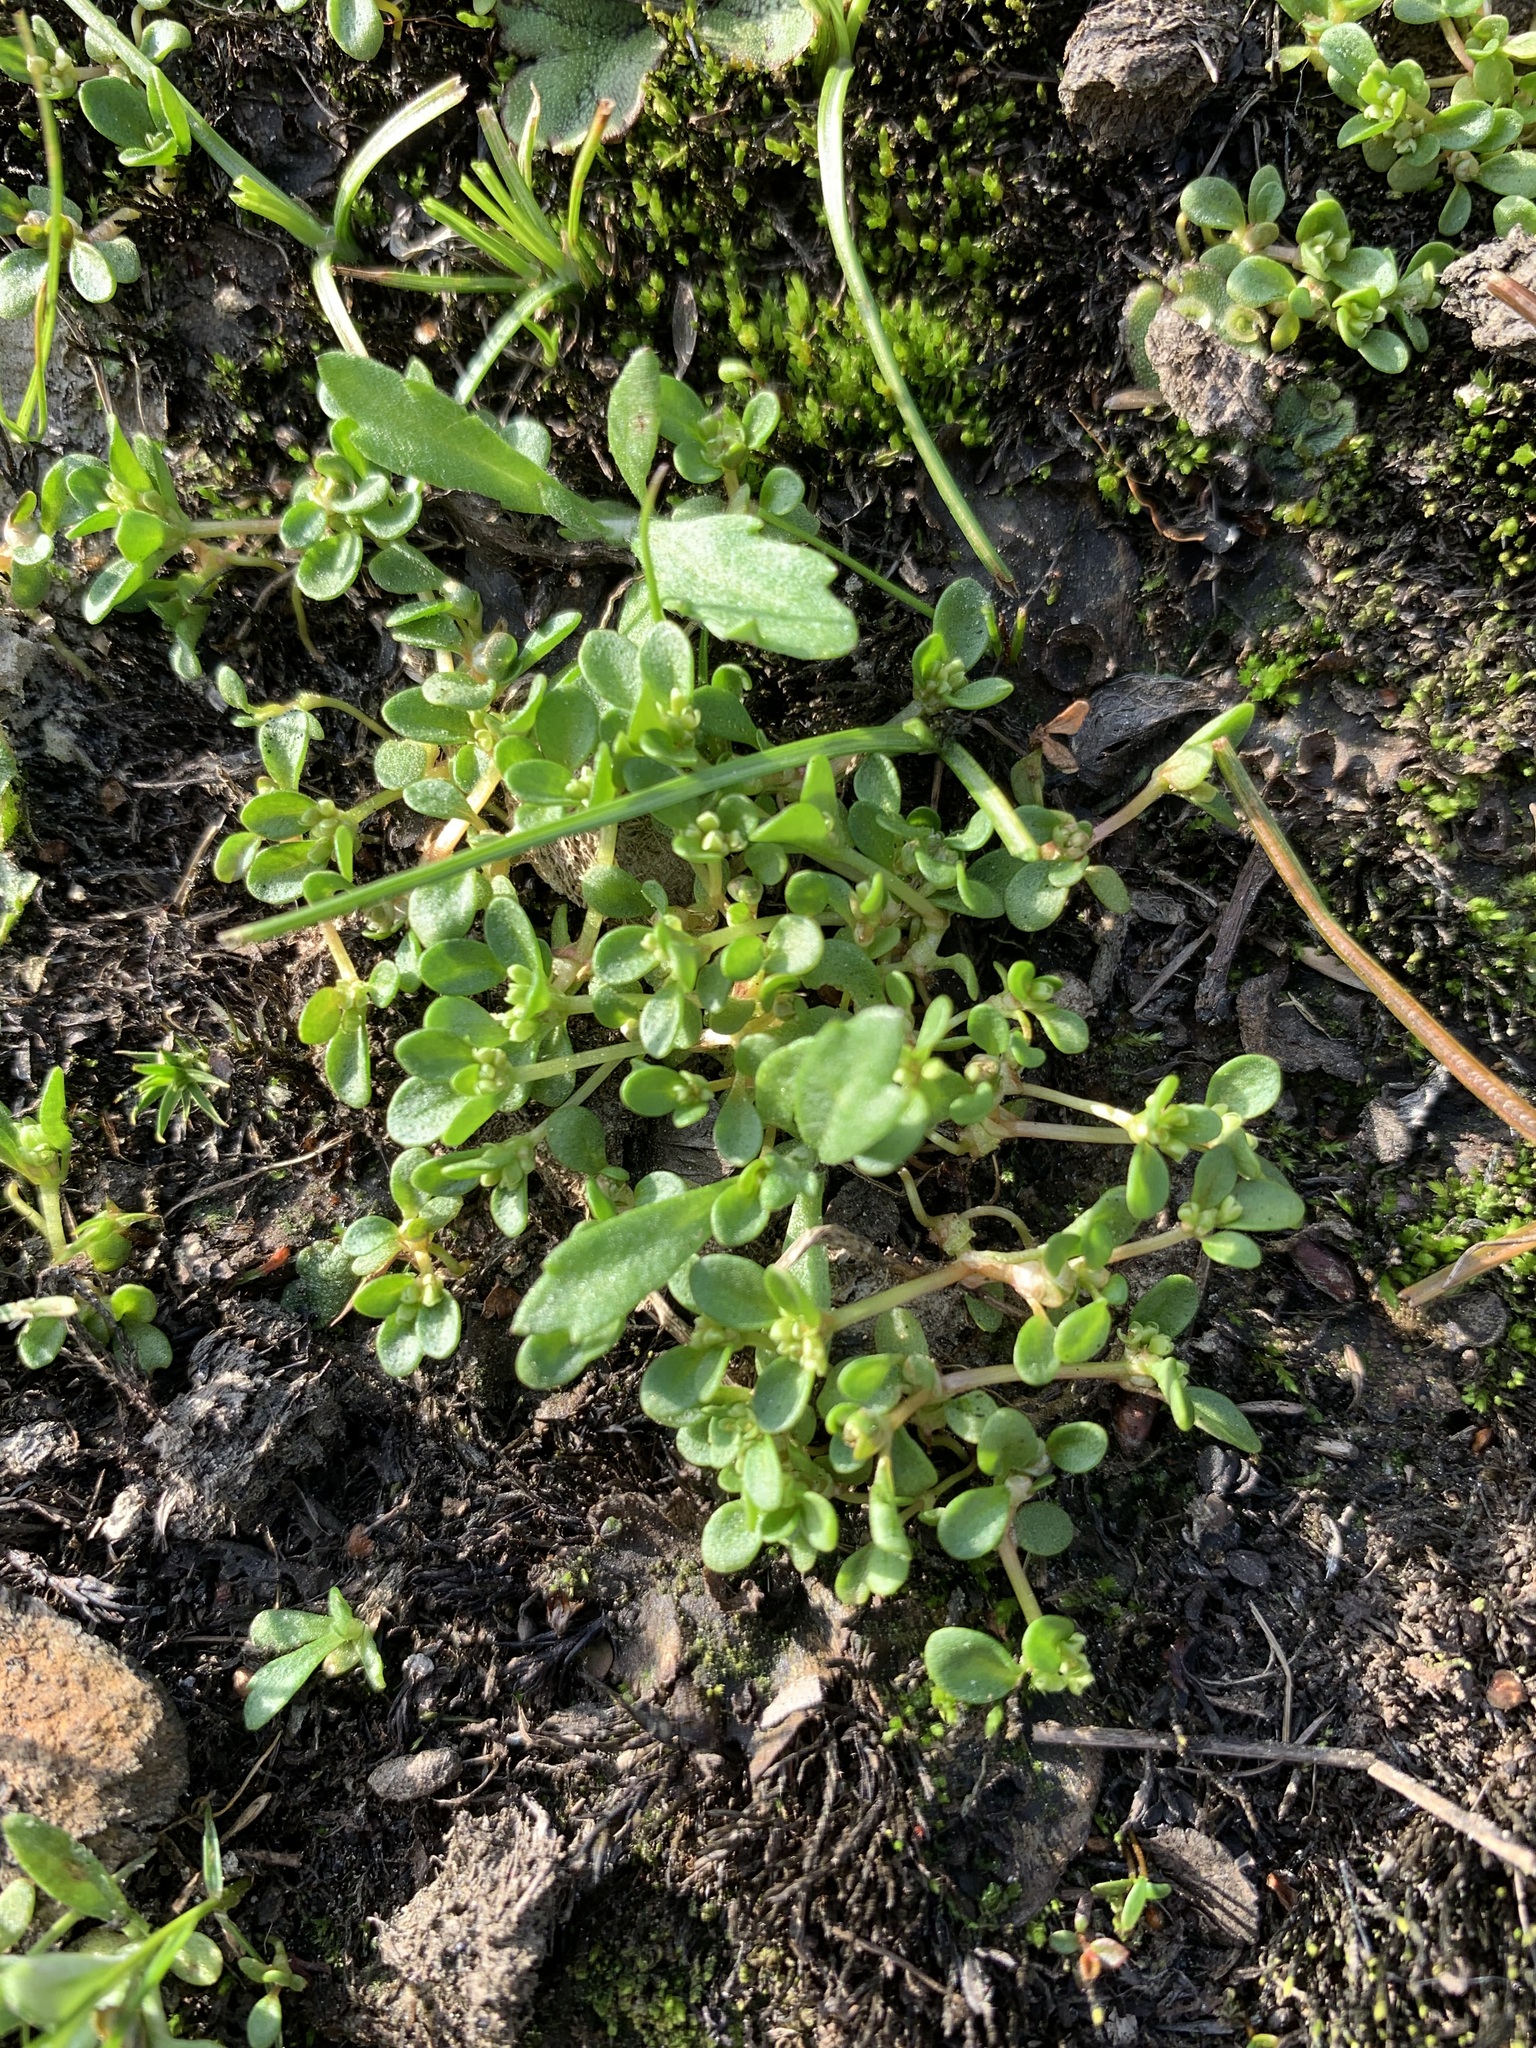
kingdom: Plantae
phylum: Tracheophyta
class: Magnoliopsida
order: Caryophyllales
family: Polygonaceae
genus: Koenigia
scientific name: Koenigia islandica
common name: Iceland-purslane
